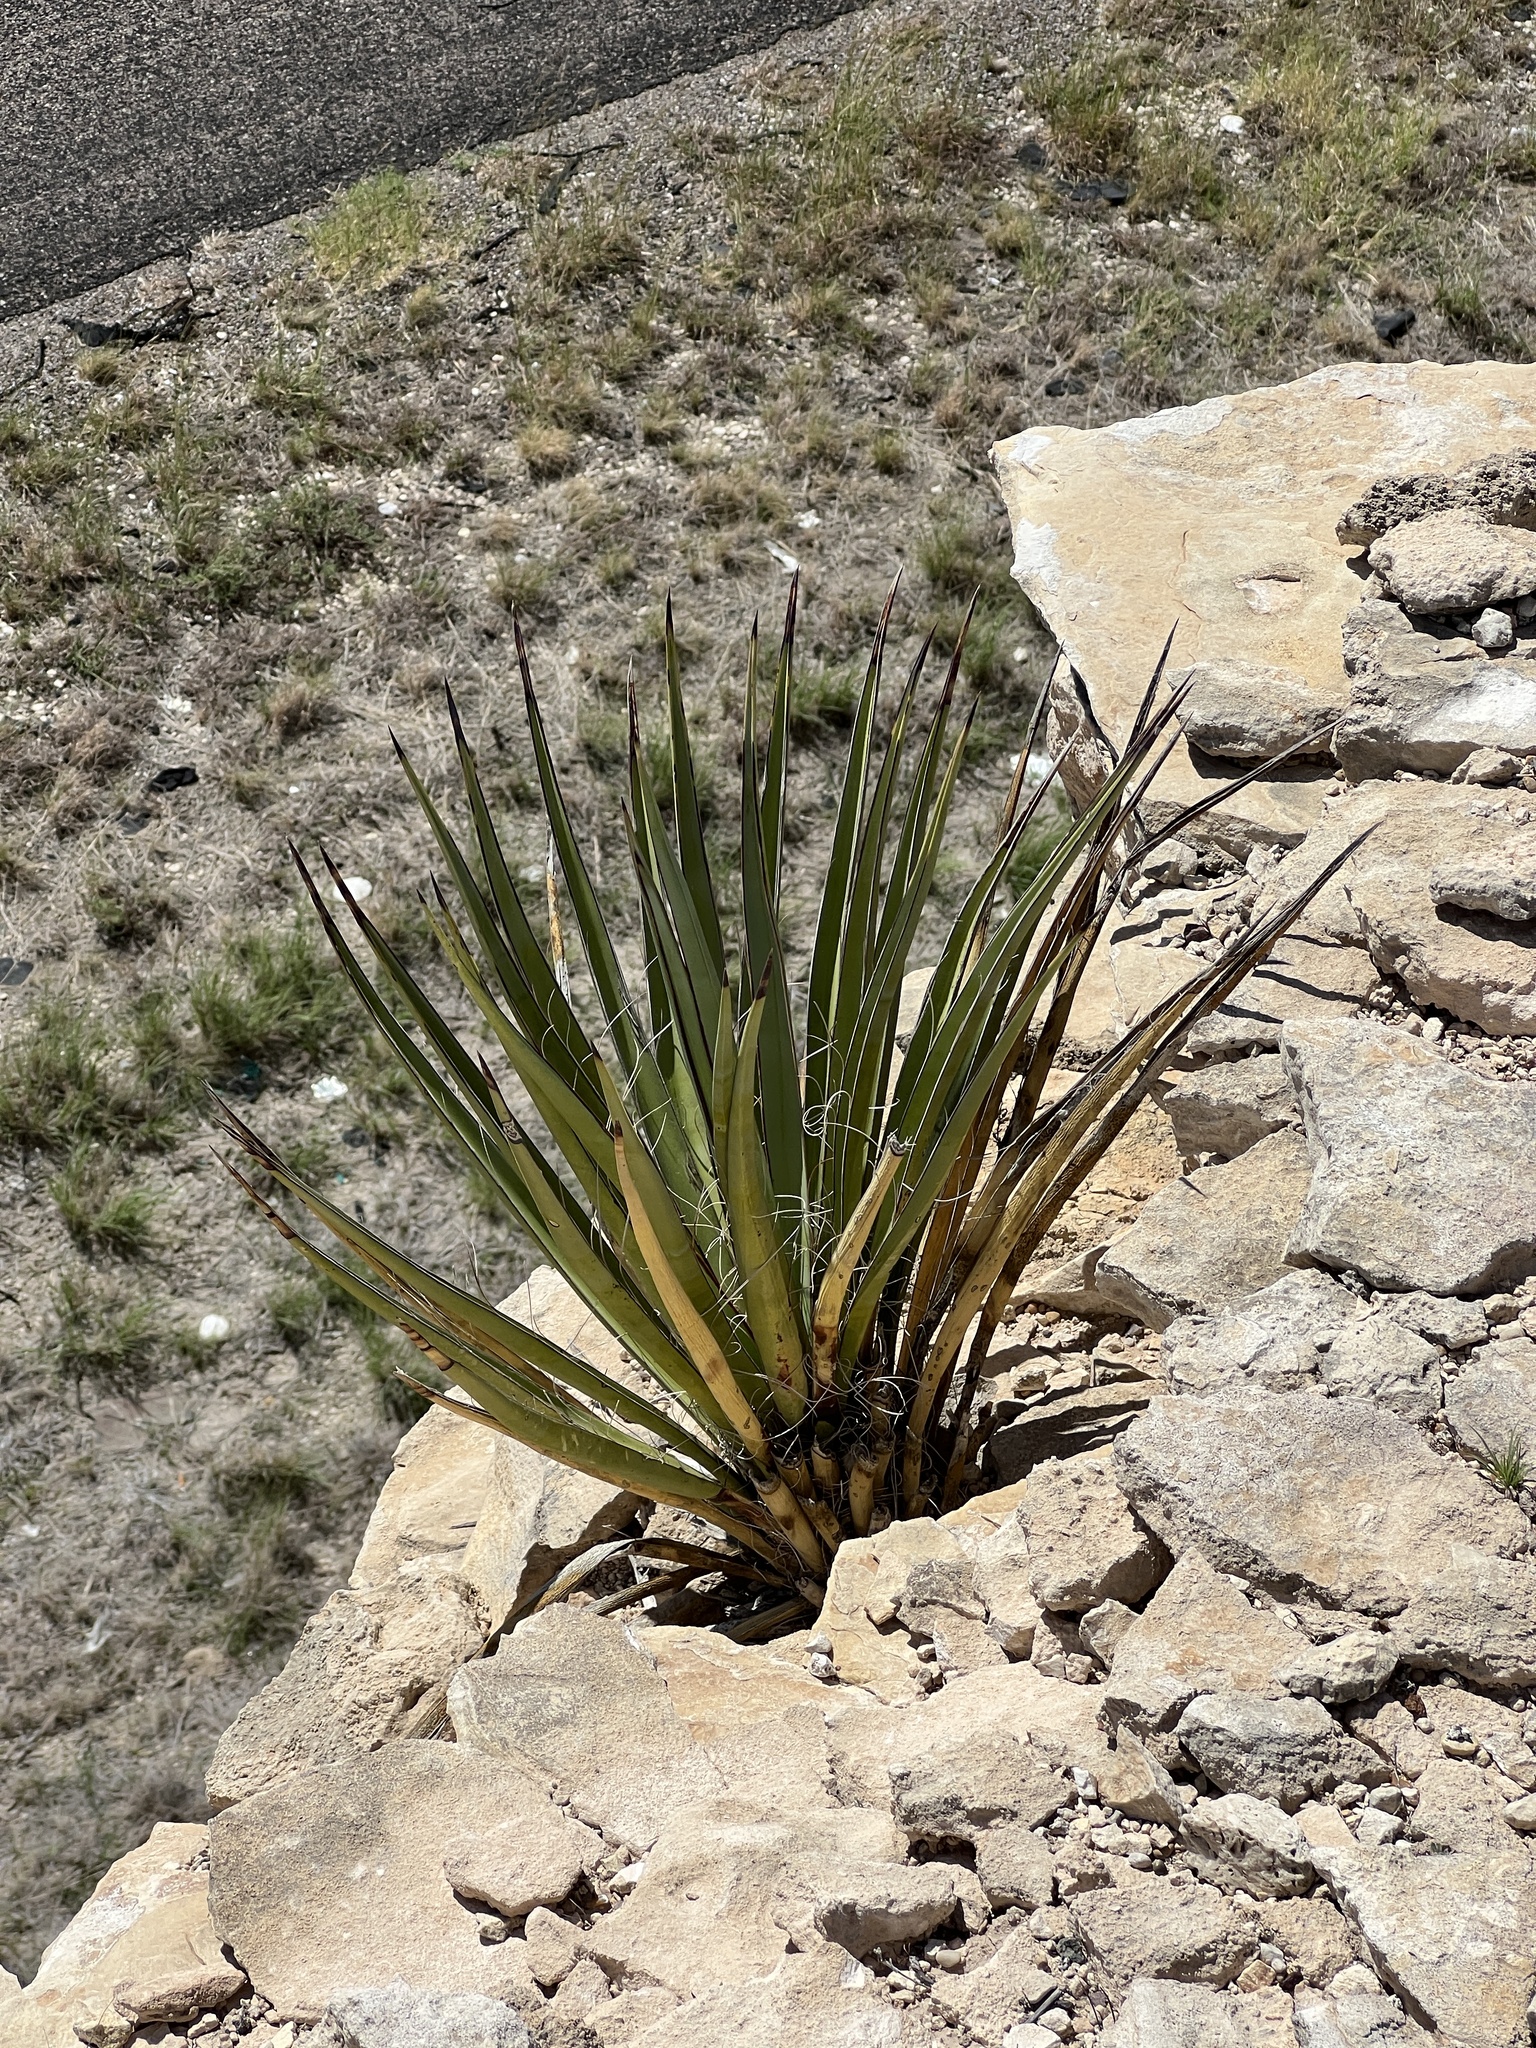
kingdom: Plantae
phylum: Tracheophyta
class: Liliopsida
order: Asparagales
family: Asparagaceae
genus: Agave
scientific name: Agave lechuguilla
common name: Lecheguilla agave
